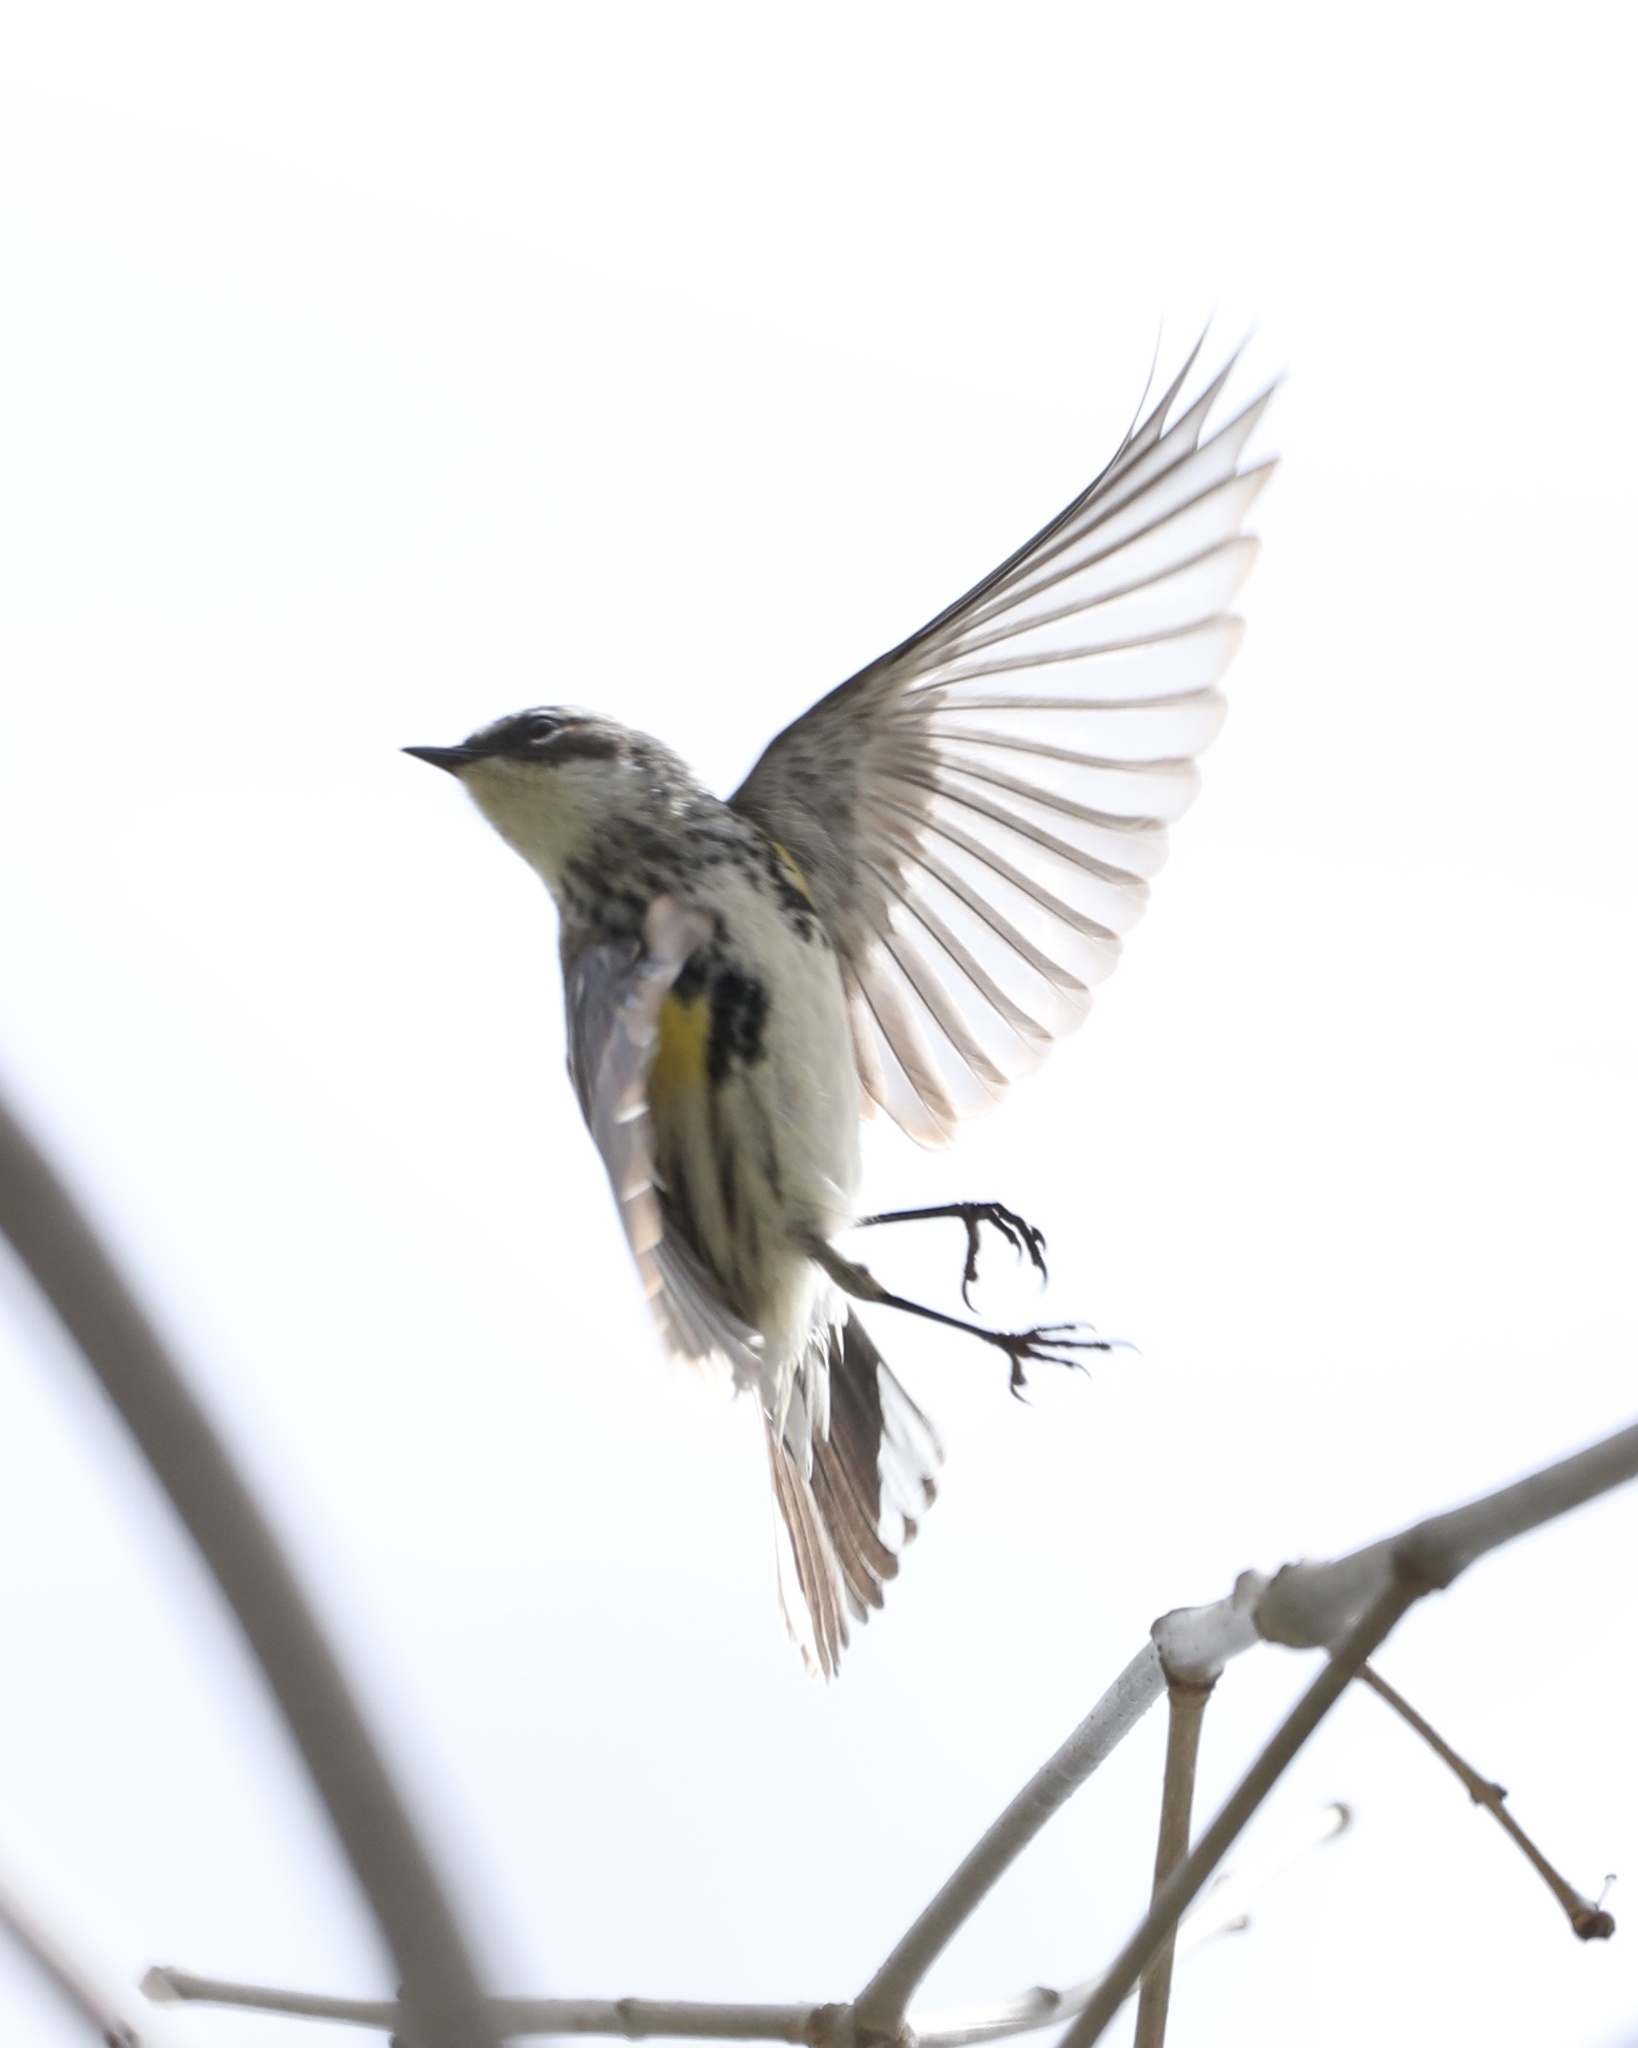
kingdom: Animalia
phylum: Chordata
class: Aves
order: Passeriformes
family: Parulidae
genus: Setophaga
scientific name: Setophaga coronata
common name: Myrtle warbler
